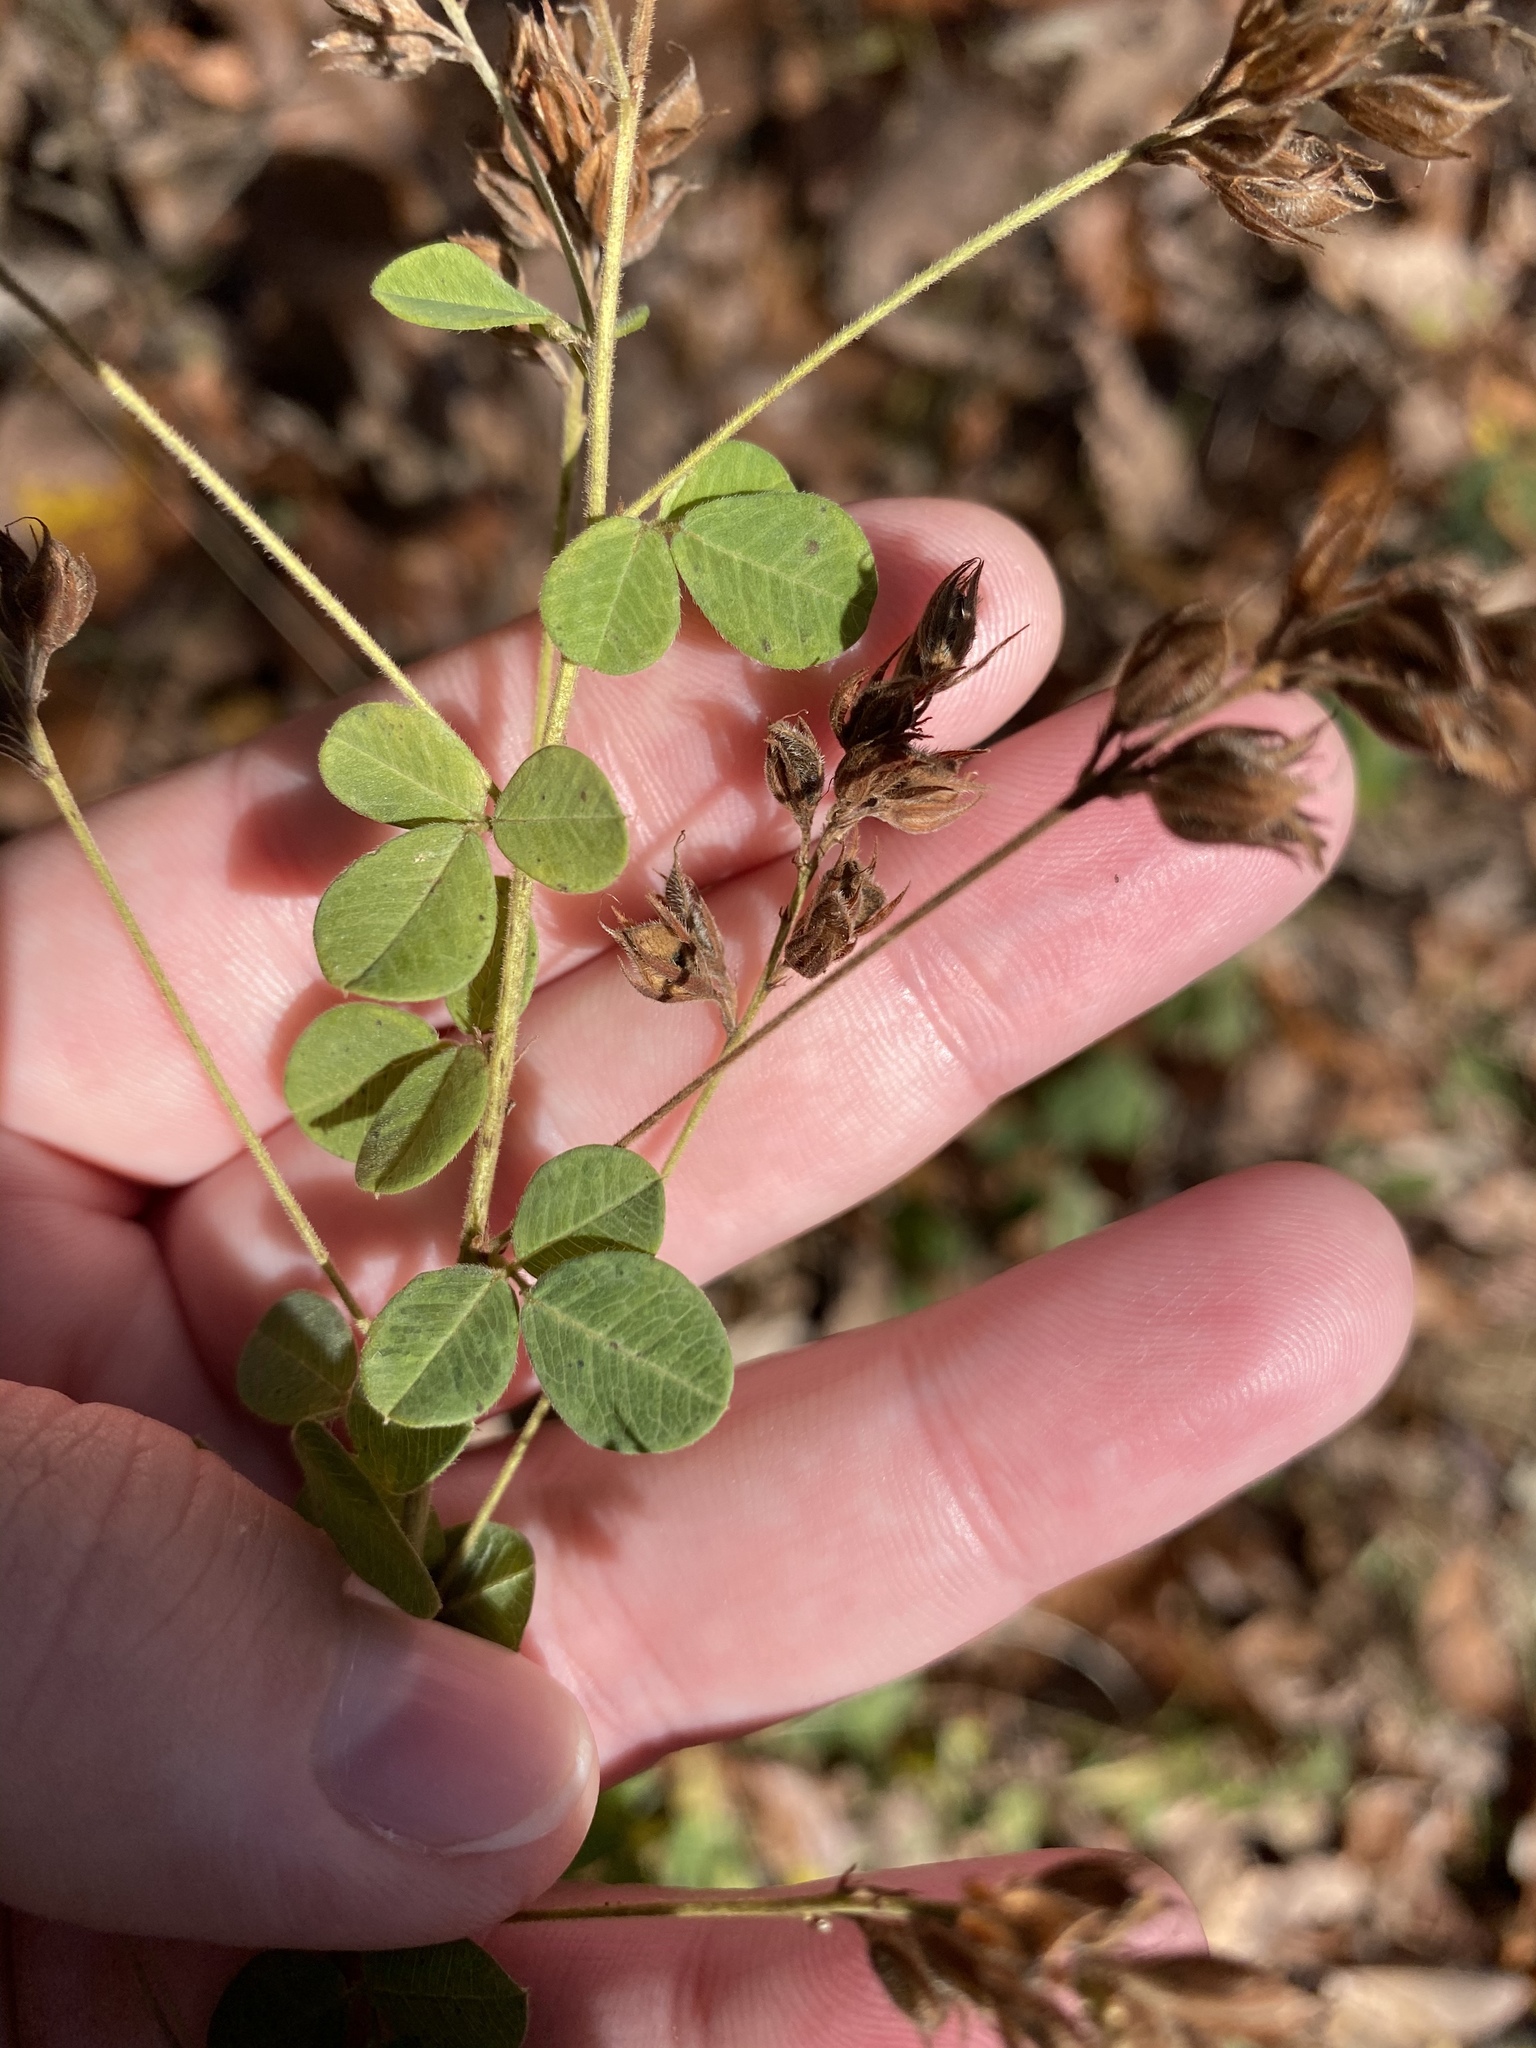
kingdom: Plantae
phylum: Tracheophyta
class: Magnoliopsida
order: Fabales
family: Fabaceae
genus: Lespedeza
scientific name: Lespedeza hirta
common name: Hairy lespedeza
